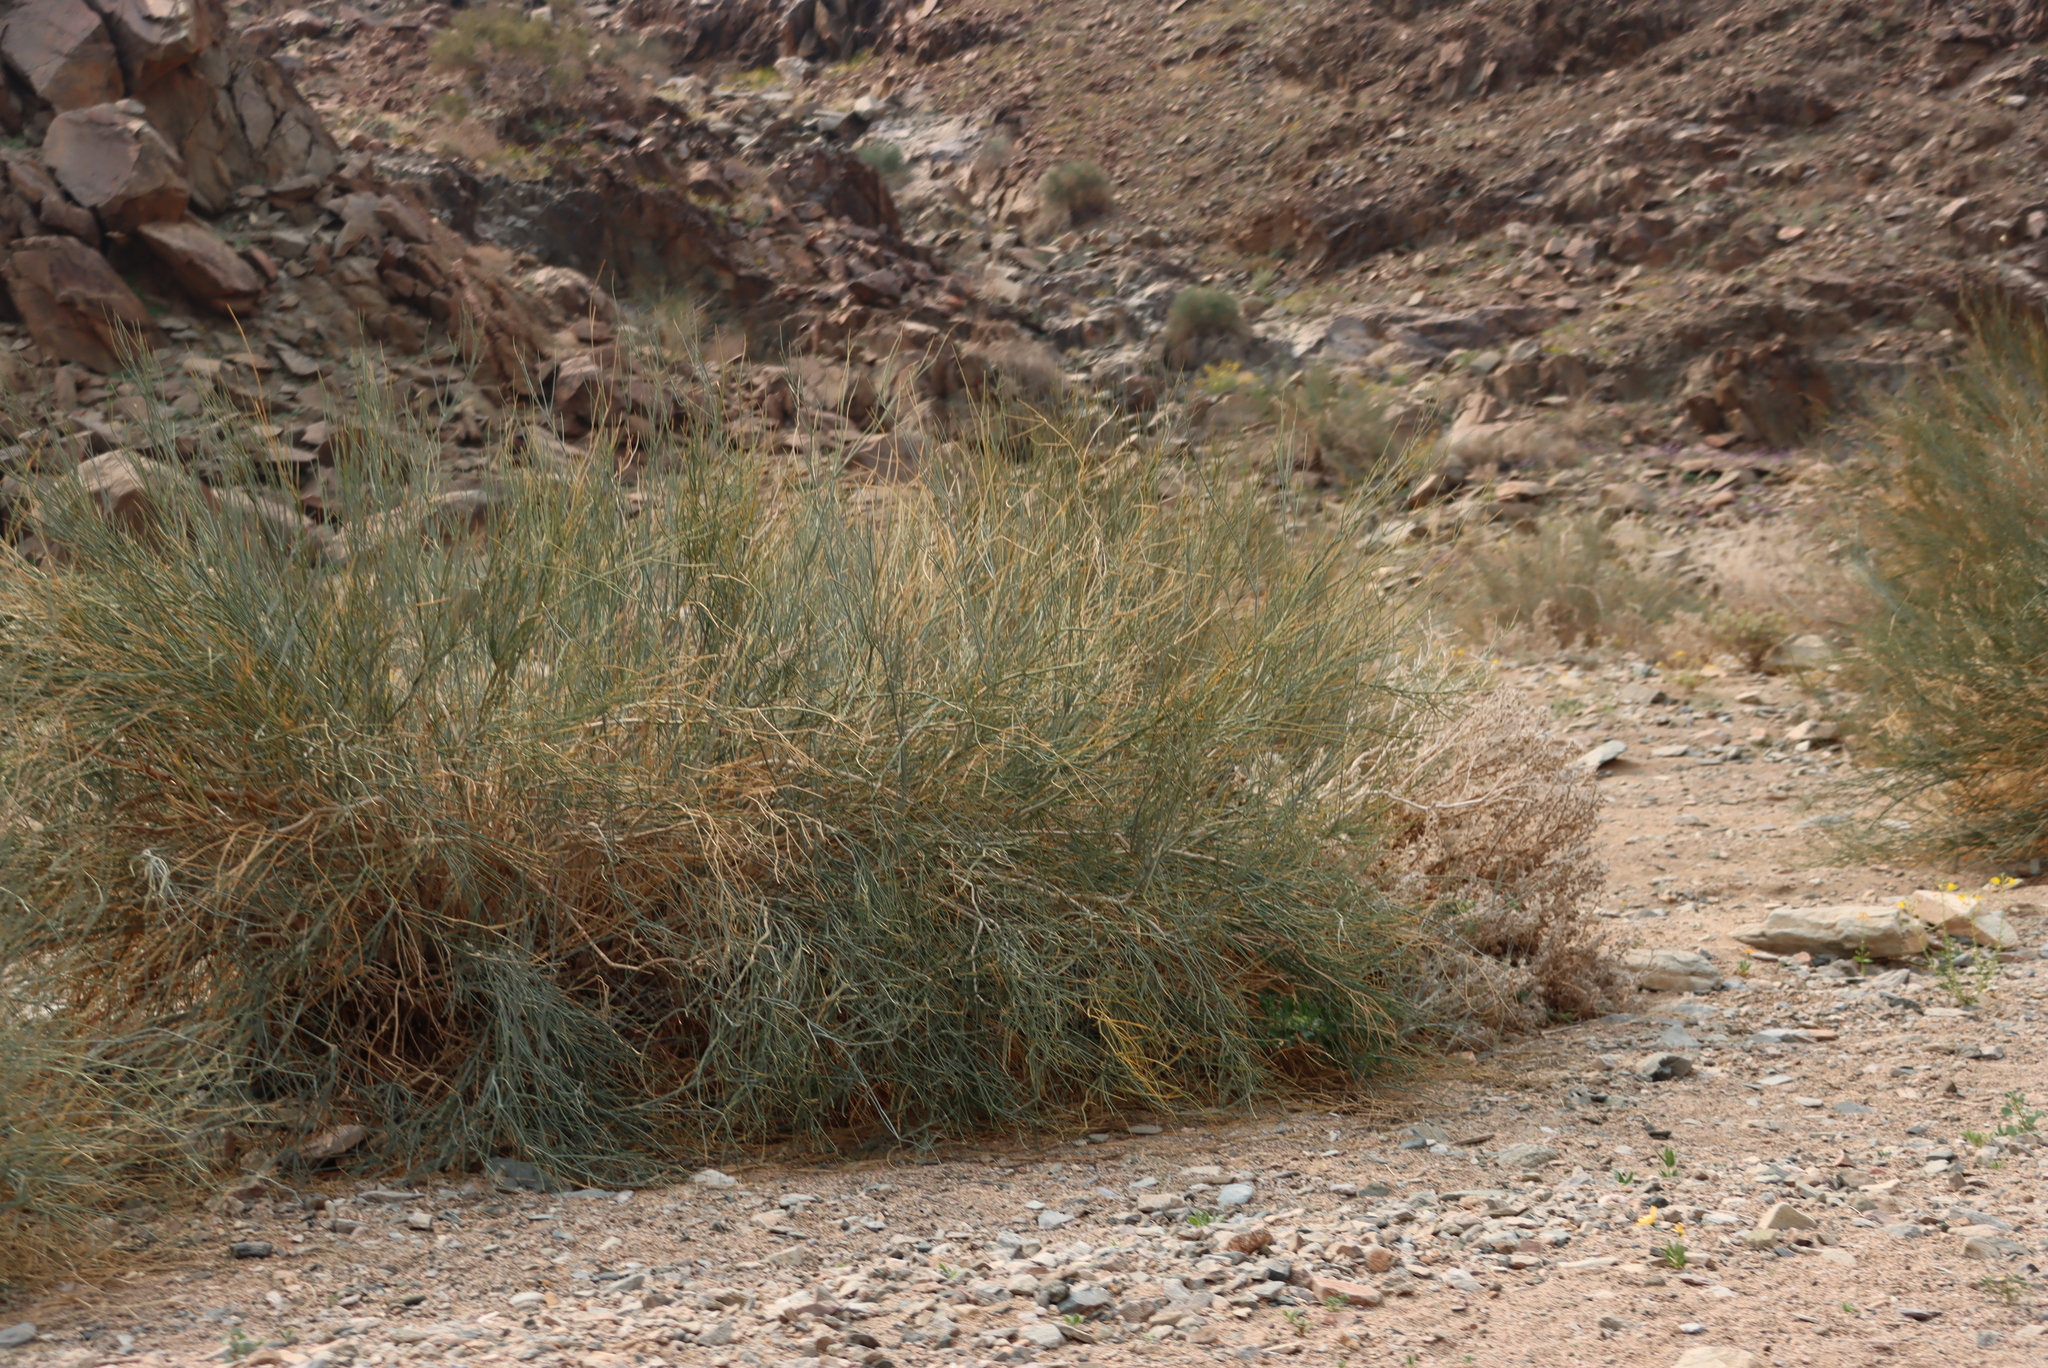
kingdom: Plantae
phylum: Tracheophyta
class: Magnoliopsida
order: Zygophyllales
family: Zygophyllaceae
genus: Sisyndite
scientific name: Sisyndite spartea
